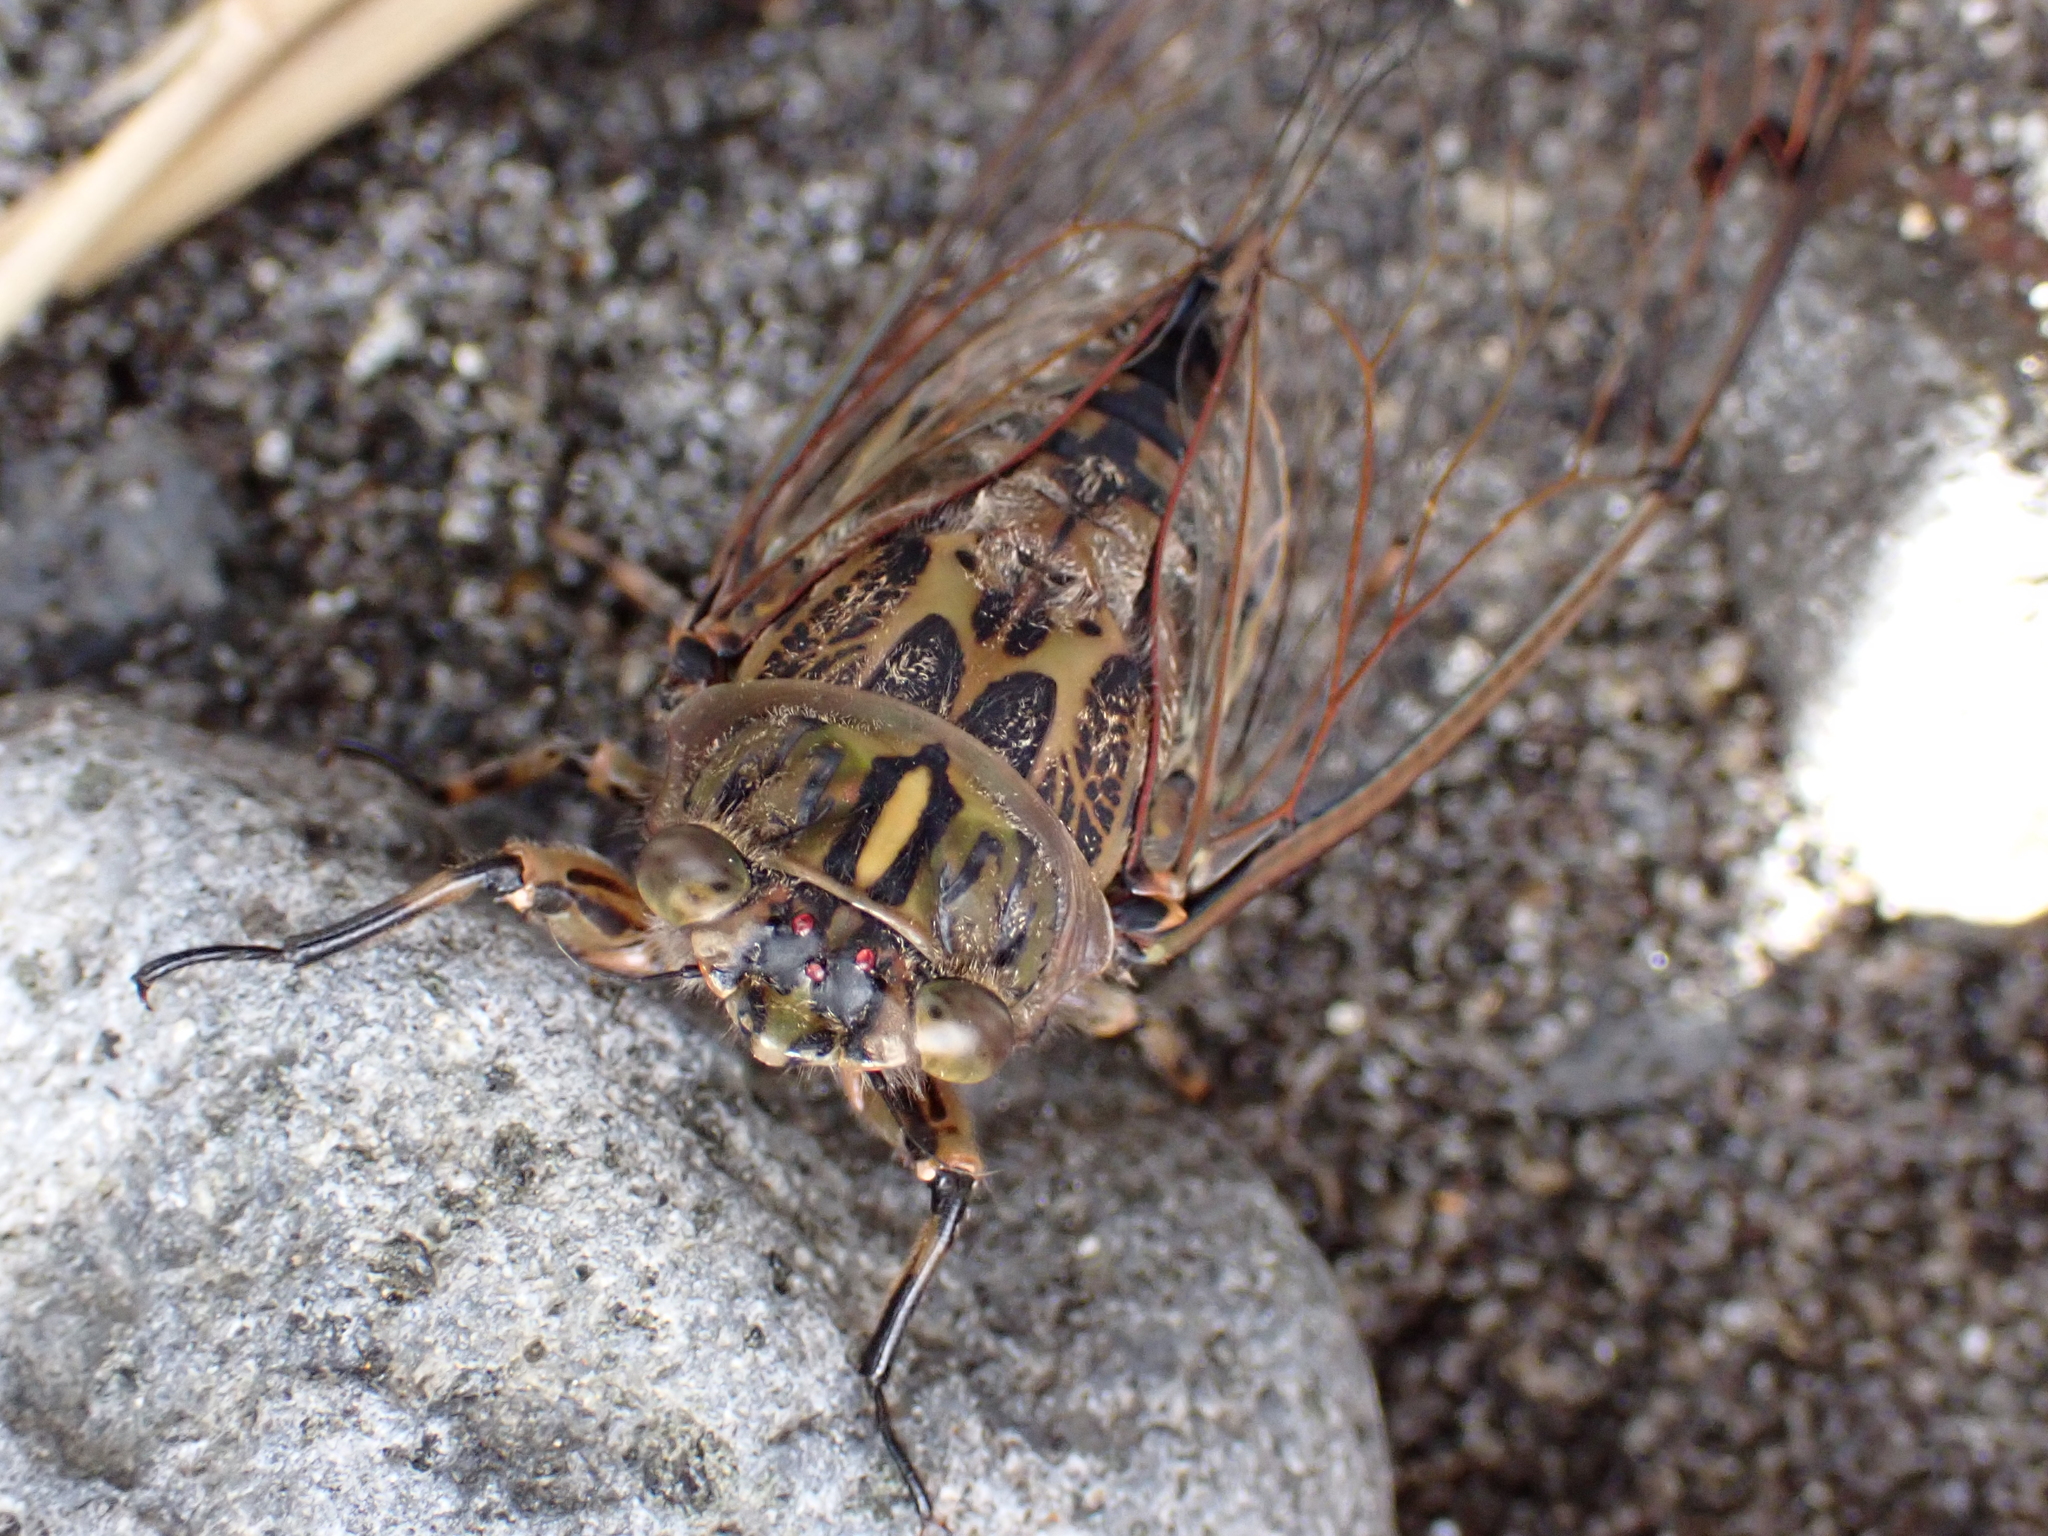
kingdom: Animalia
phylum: Arthropoda
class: Insecta
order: Hemiptera
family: Cicadidae
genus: Amphipsalta
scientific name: Amphipsalta cingulata
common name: Clapping cicada
